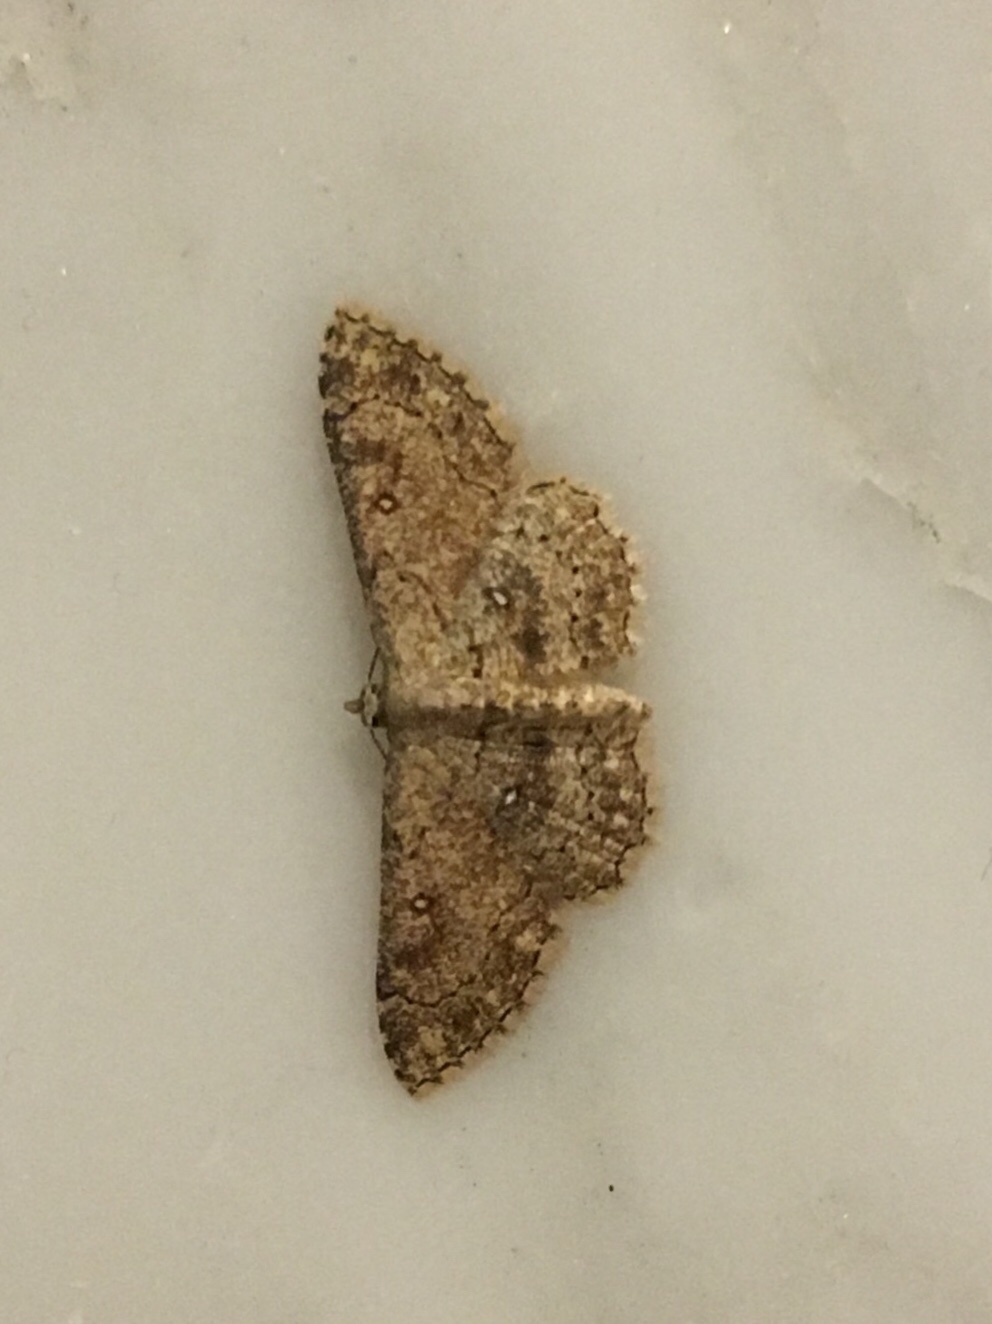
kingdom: Animalia
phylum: Arthropoda
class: Insecta
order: Lepidoptera
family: Geometridae
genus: Cyclophora
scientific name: Cyclophora nanaria
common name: Cankerworm
